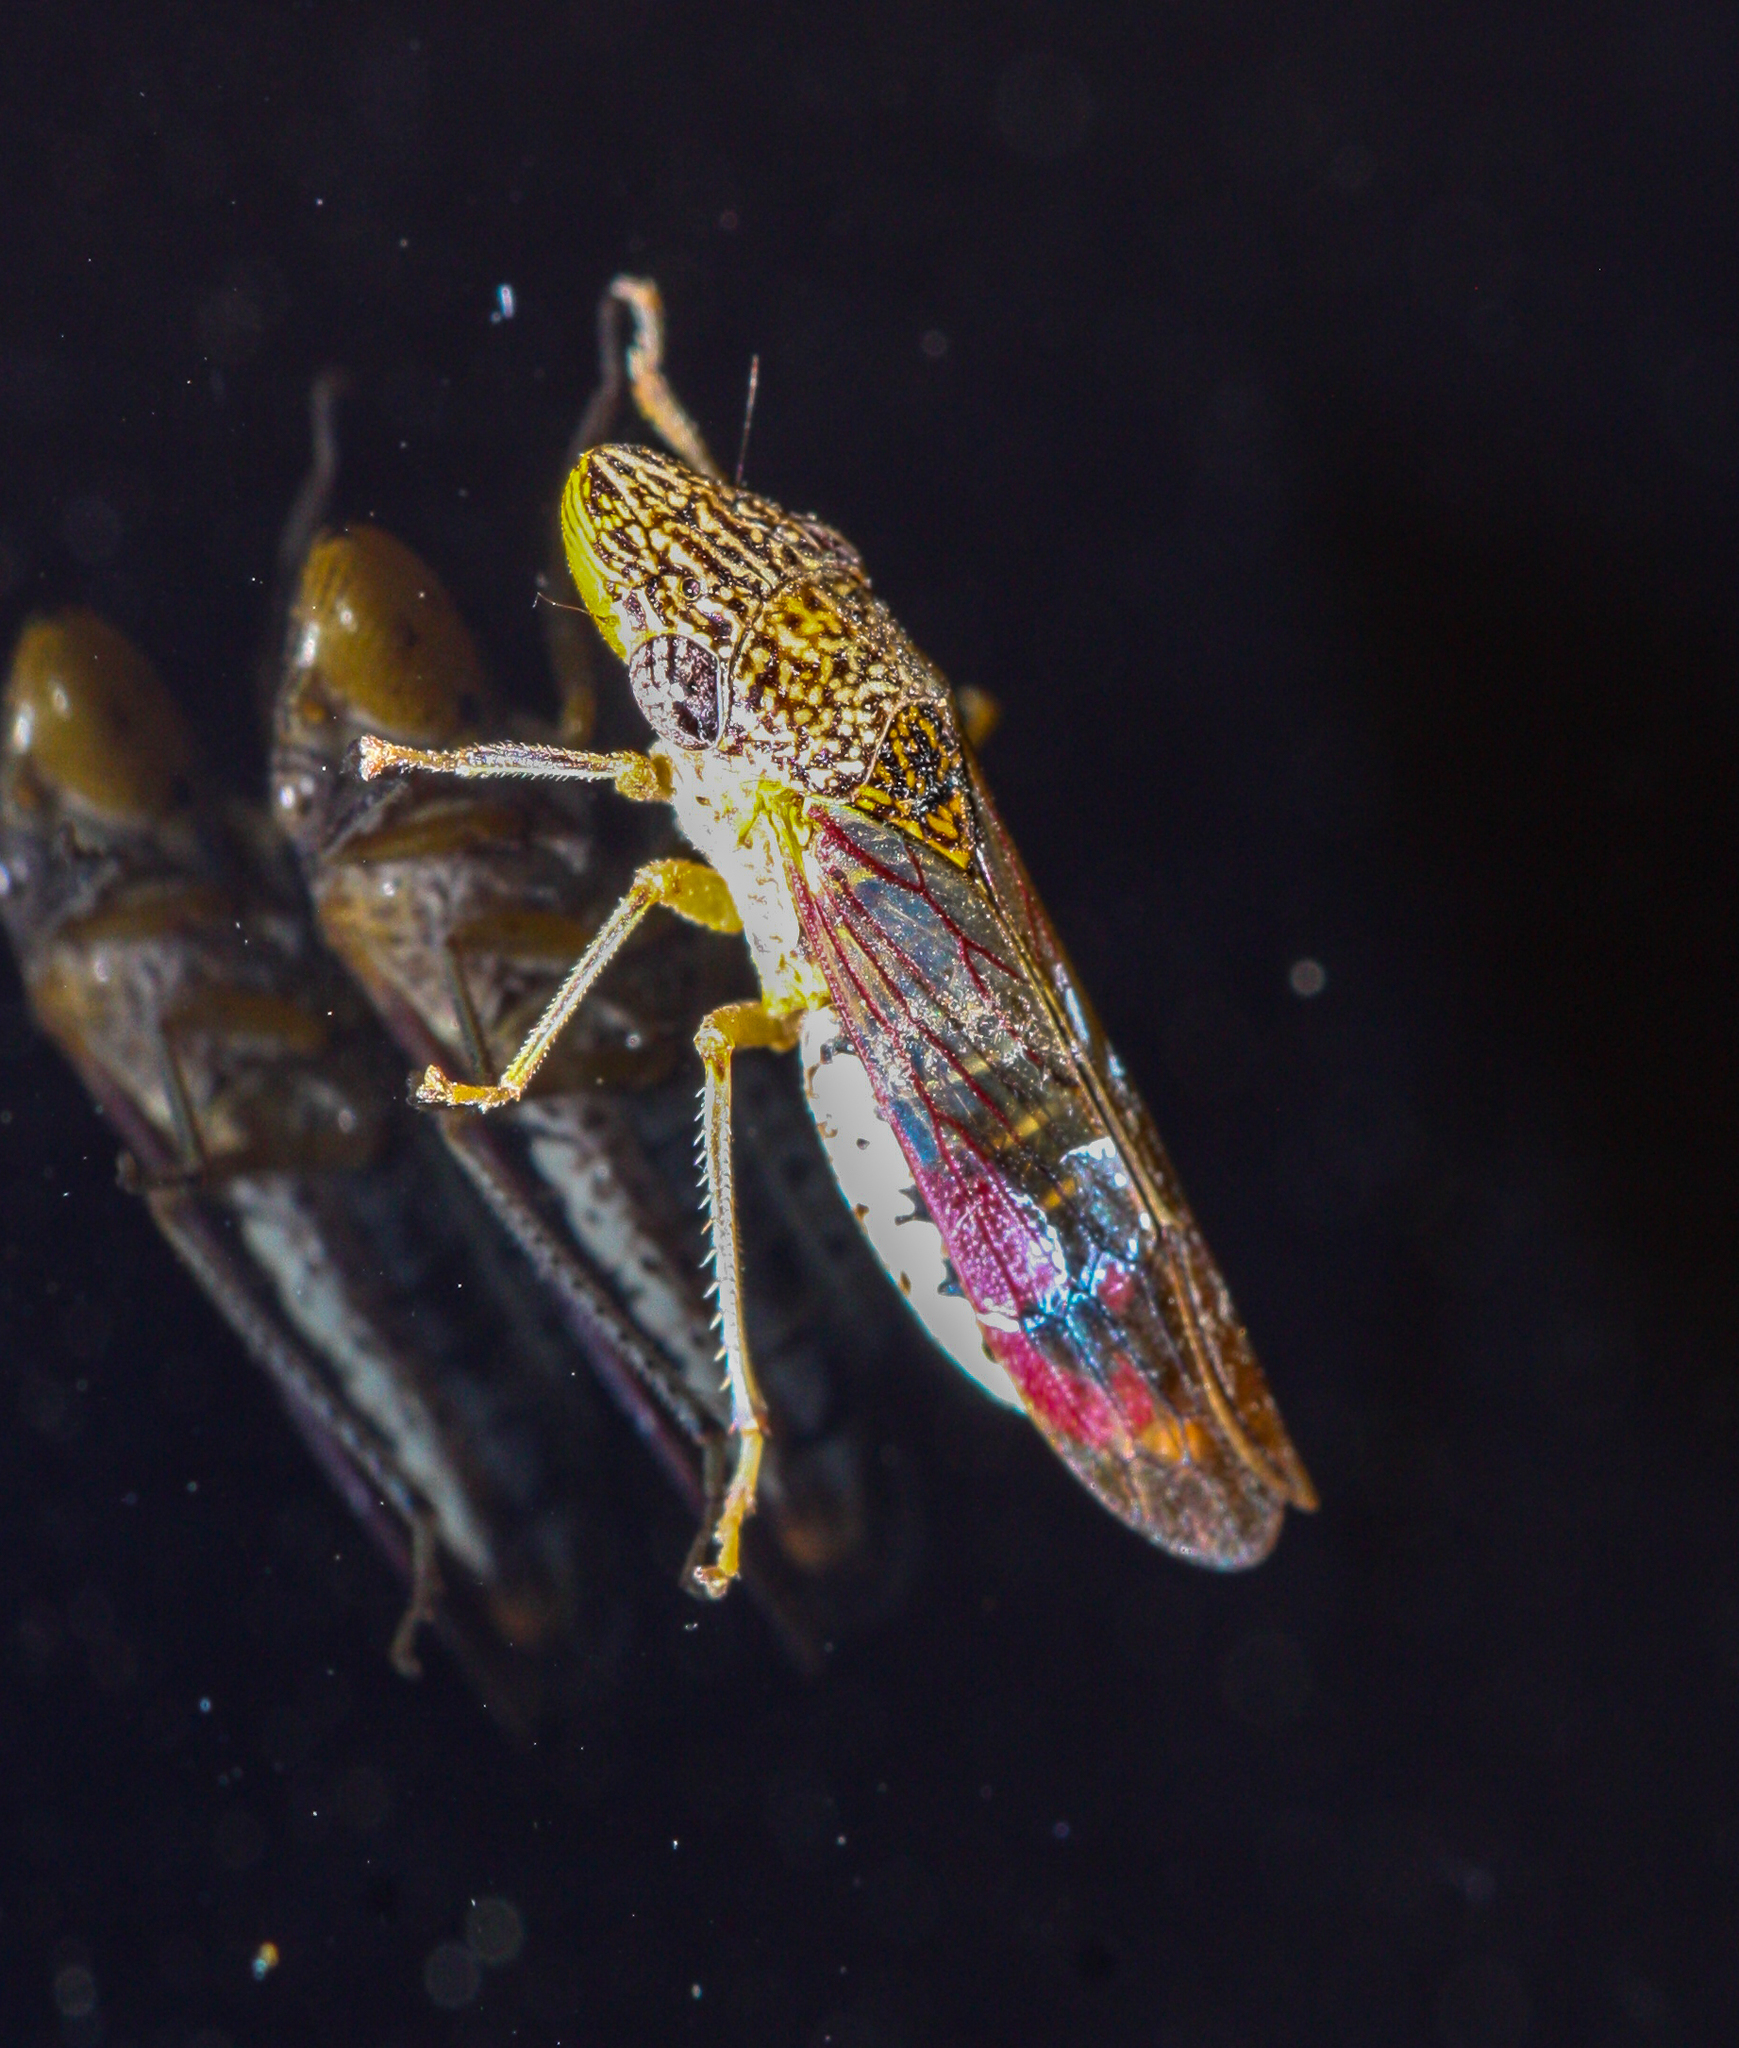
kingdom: Animalia
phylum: Arthropoda
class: Insecta
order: Hemiptera
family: Cicadellidae
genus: Homalodisca
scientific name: Homalodisca liturata
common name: Lacertate sharpshooter
